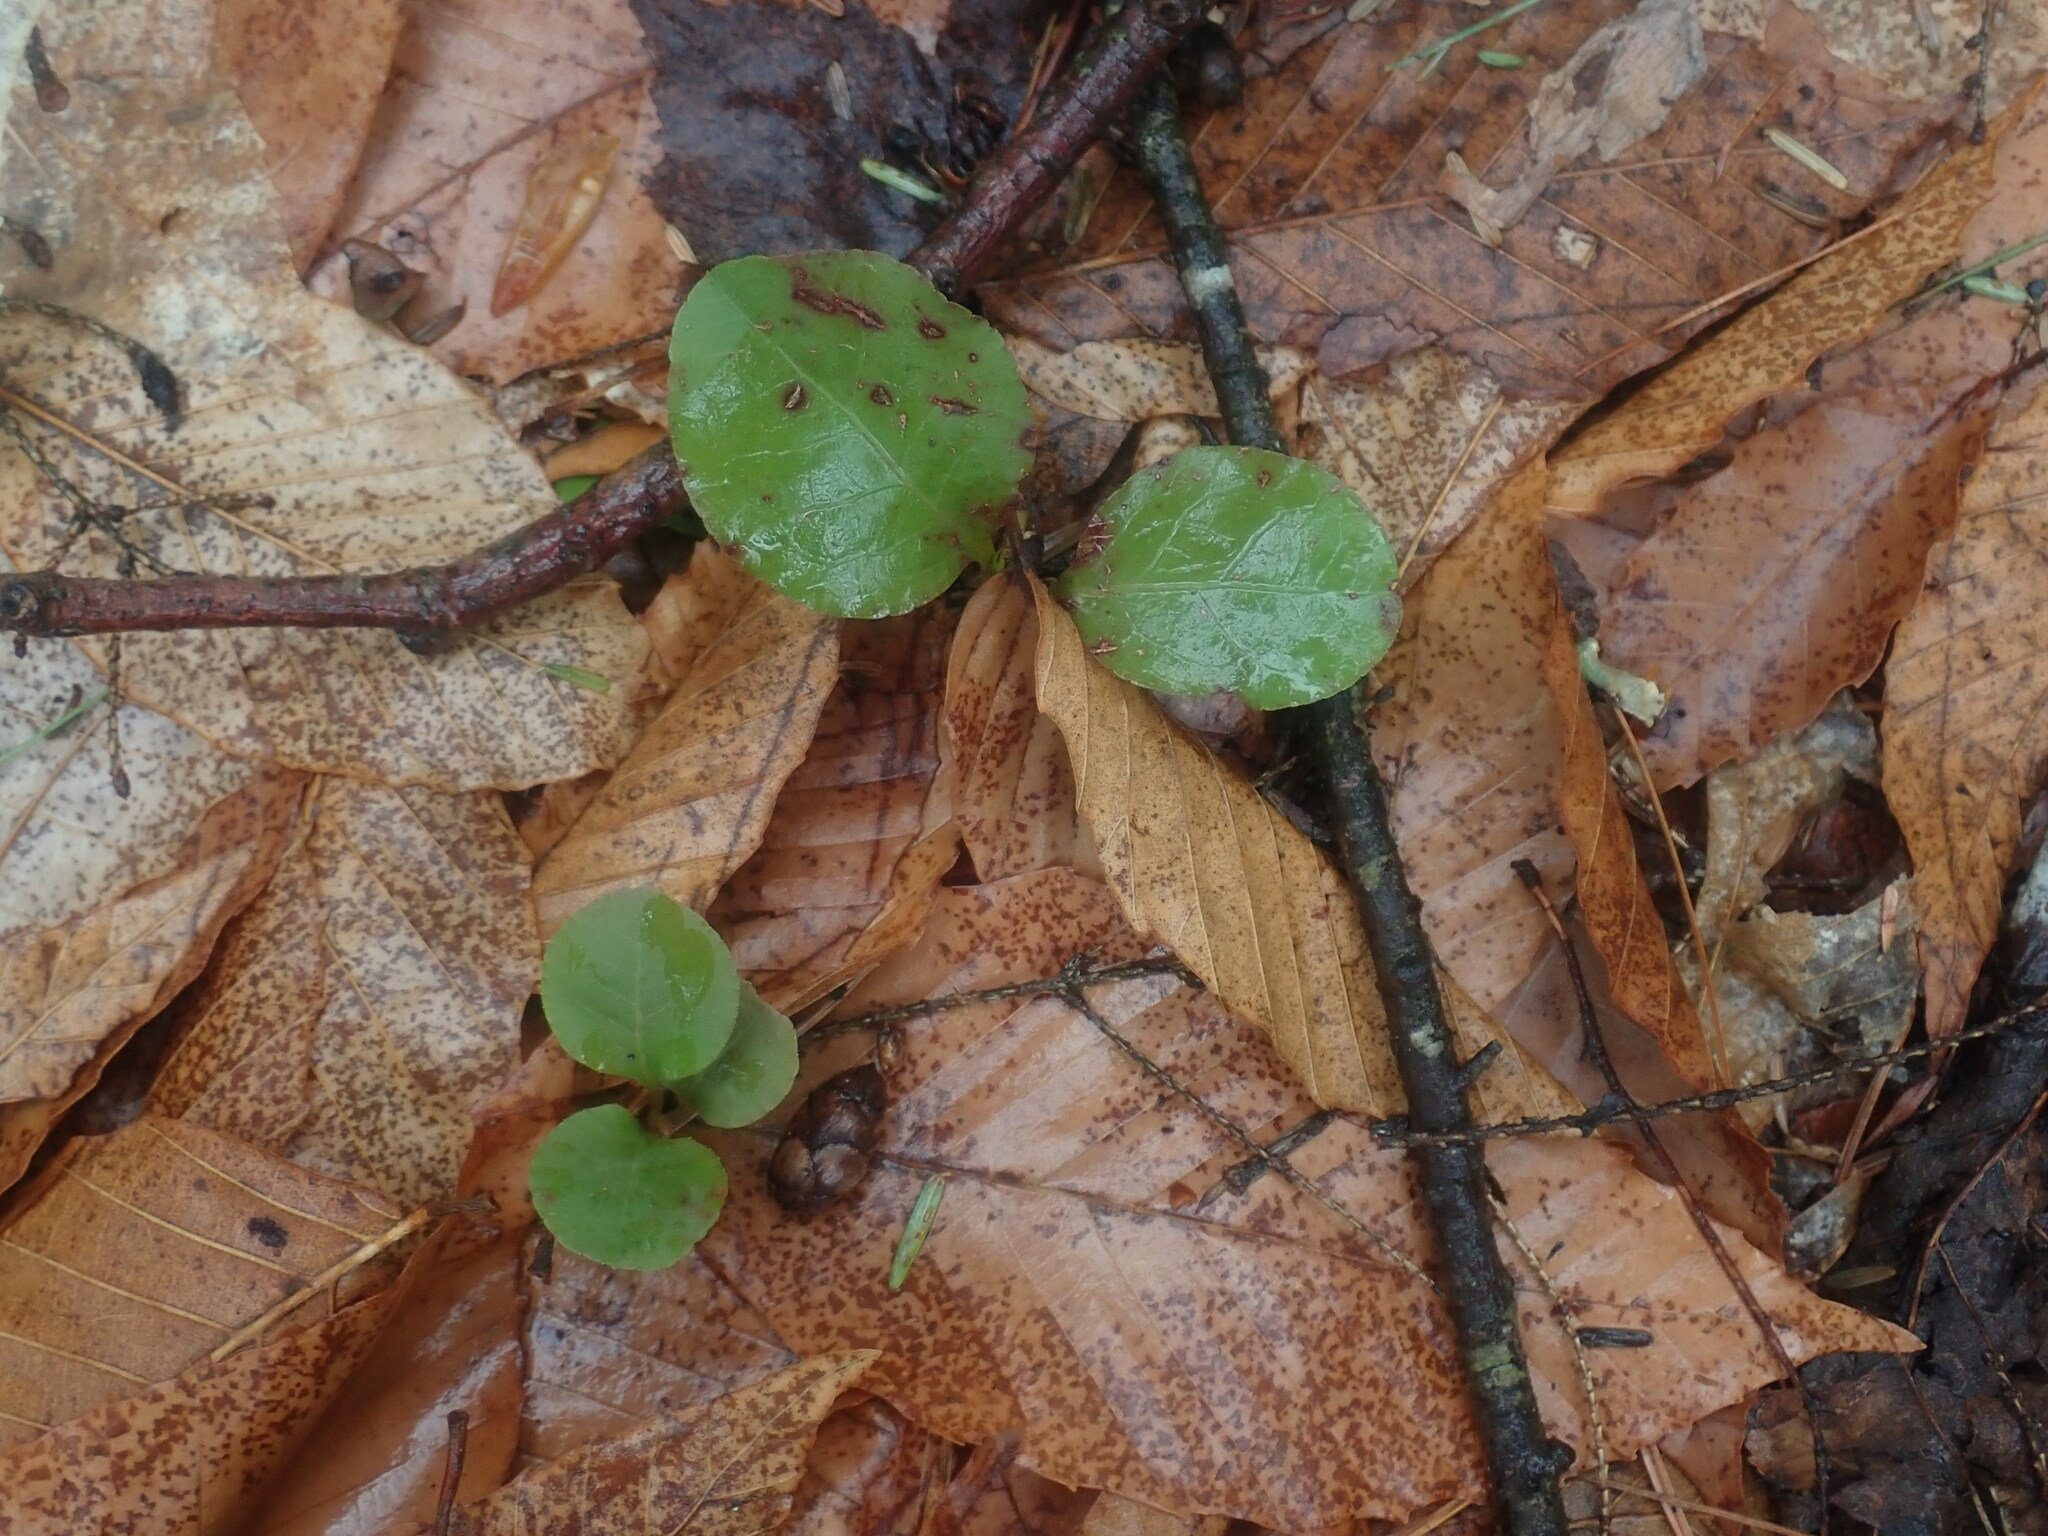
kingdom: Plantae
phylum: Tracheophyta
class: Magnoliopsida
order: Ericales
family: Ericaceae
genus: Pyrola
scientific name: Pyrola elliptica
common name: Shinleaf
